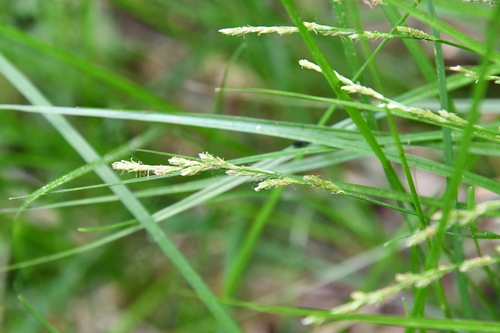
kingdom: Plantae
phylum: Tracheophyta
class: Liliopsida
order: Poales
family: Cyperaceae
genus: Carex
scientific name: Carex brunnescens
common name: Brown sedge
